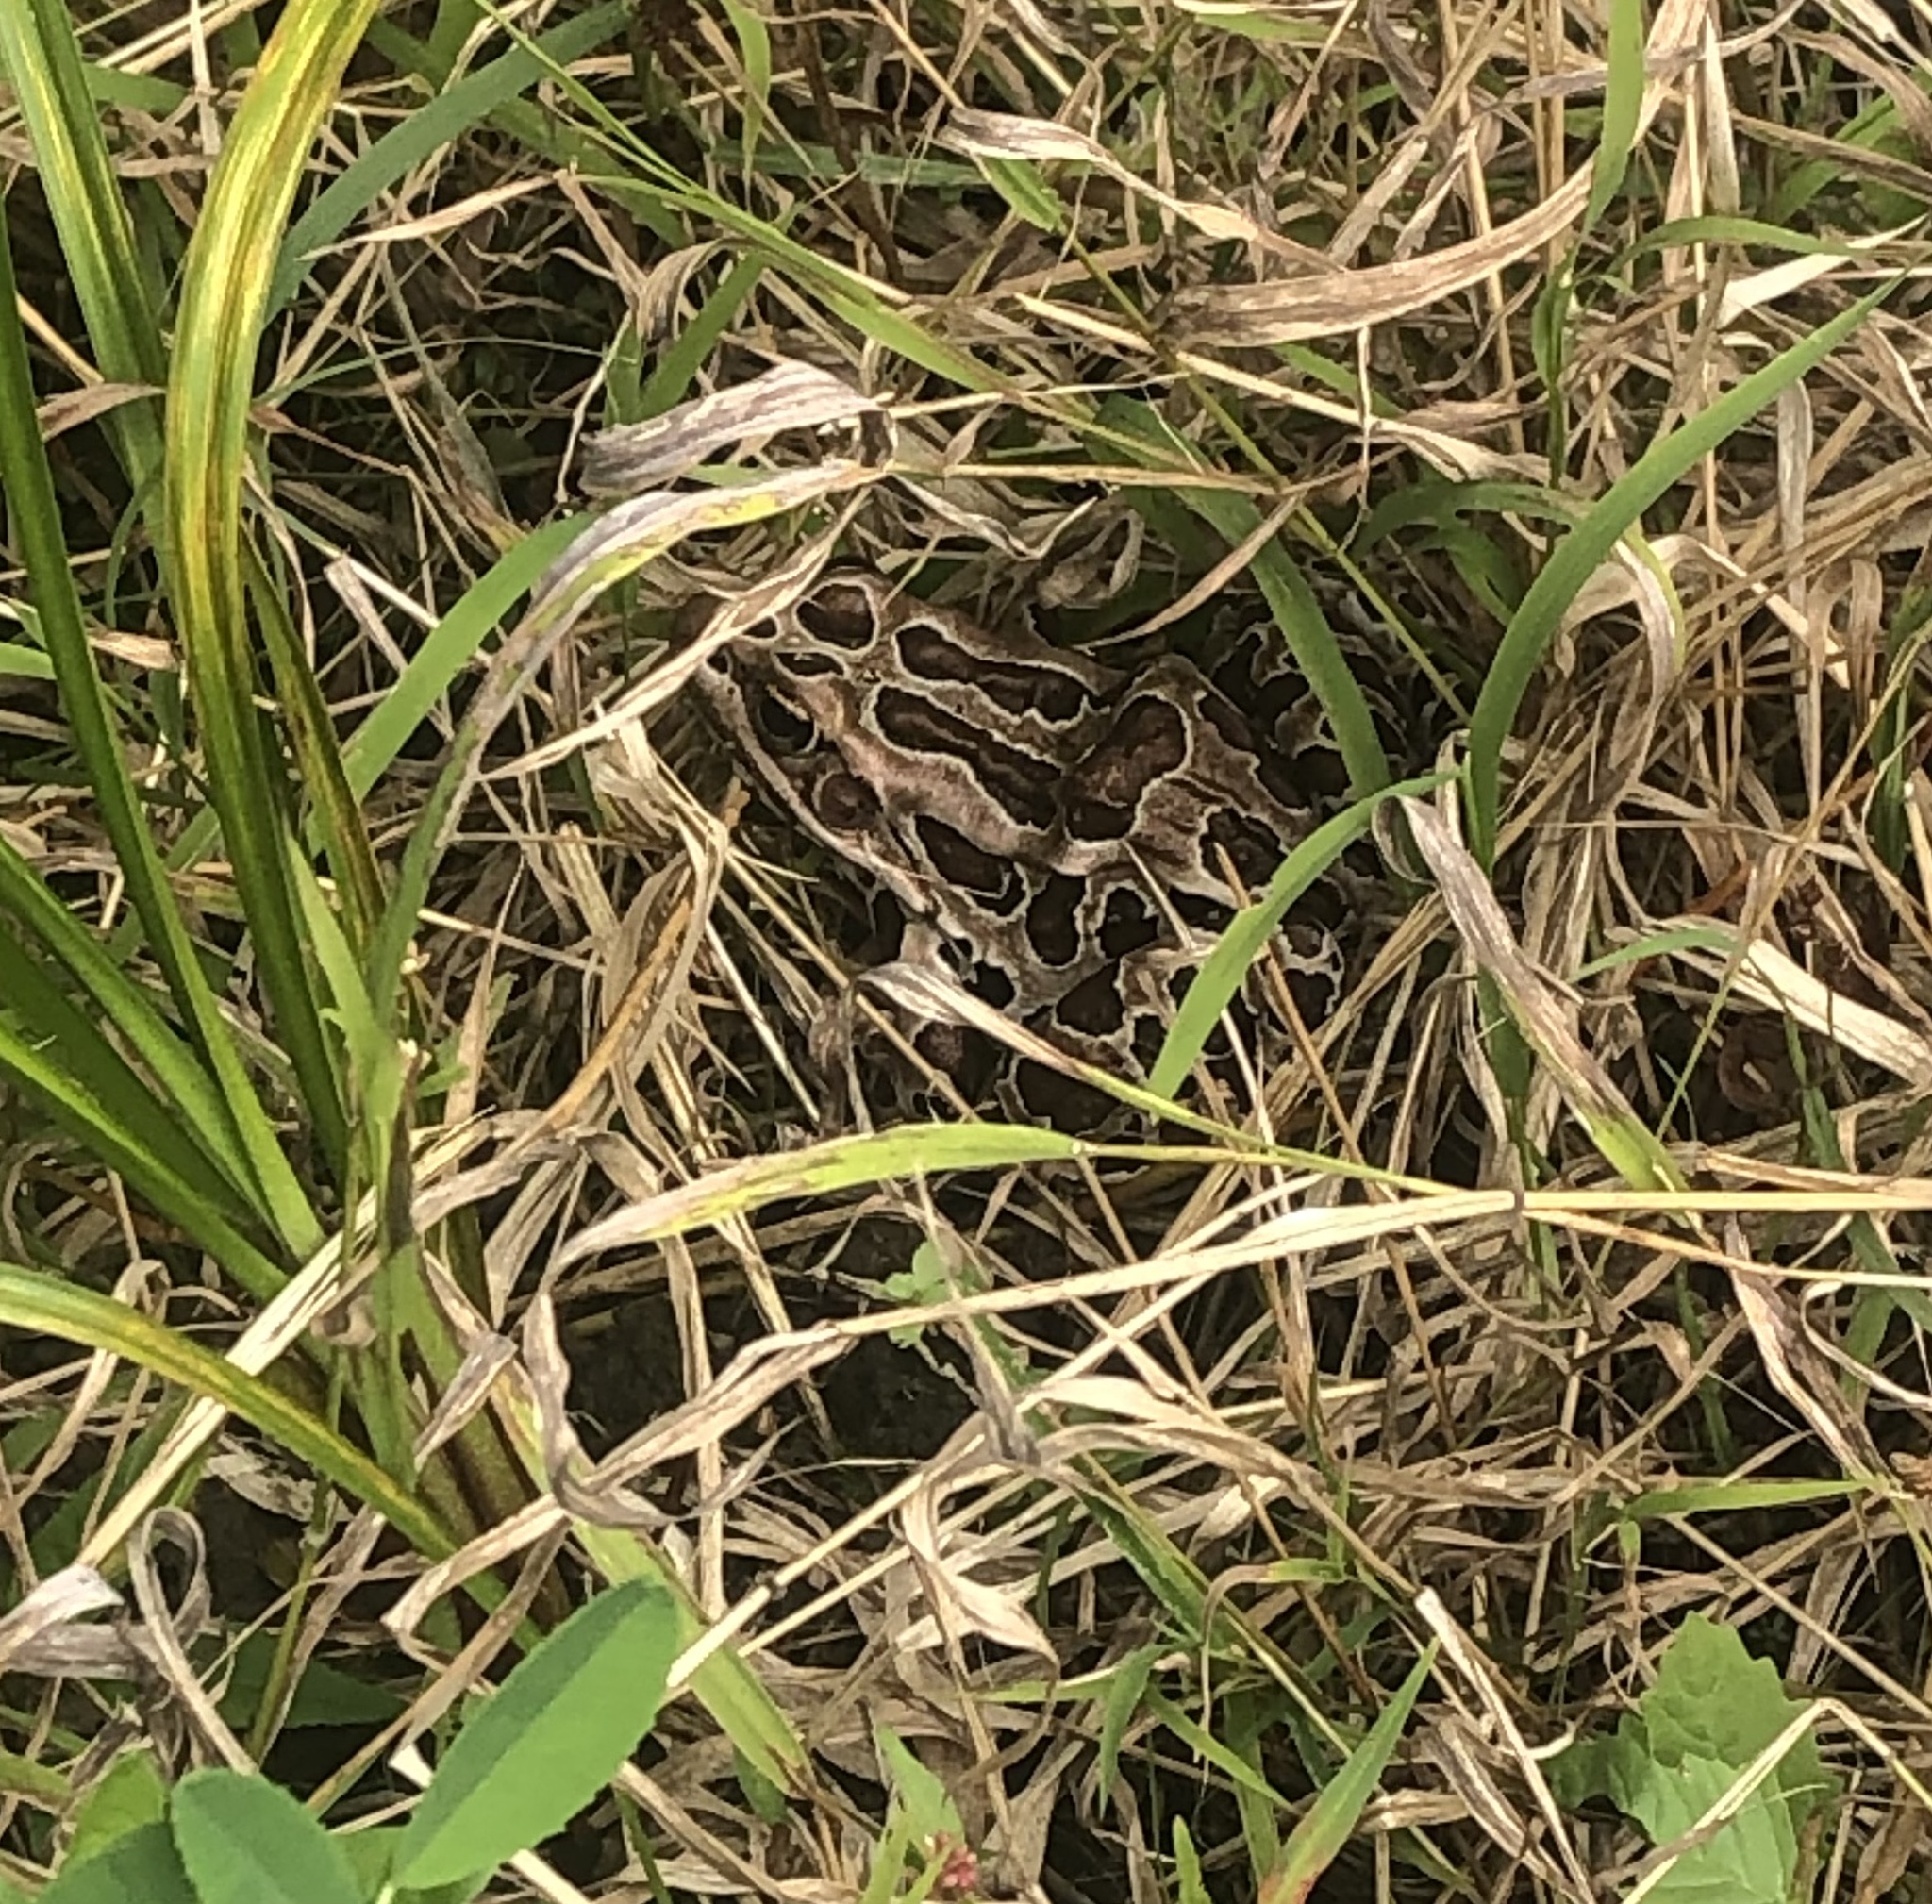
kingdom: Animalia
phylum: Chordata
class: Amphibia
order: Anura
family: Ranidae
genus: Lithobates
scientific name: Lithobates palustris
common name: Pickerel frog
